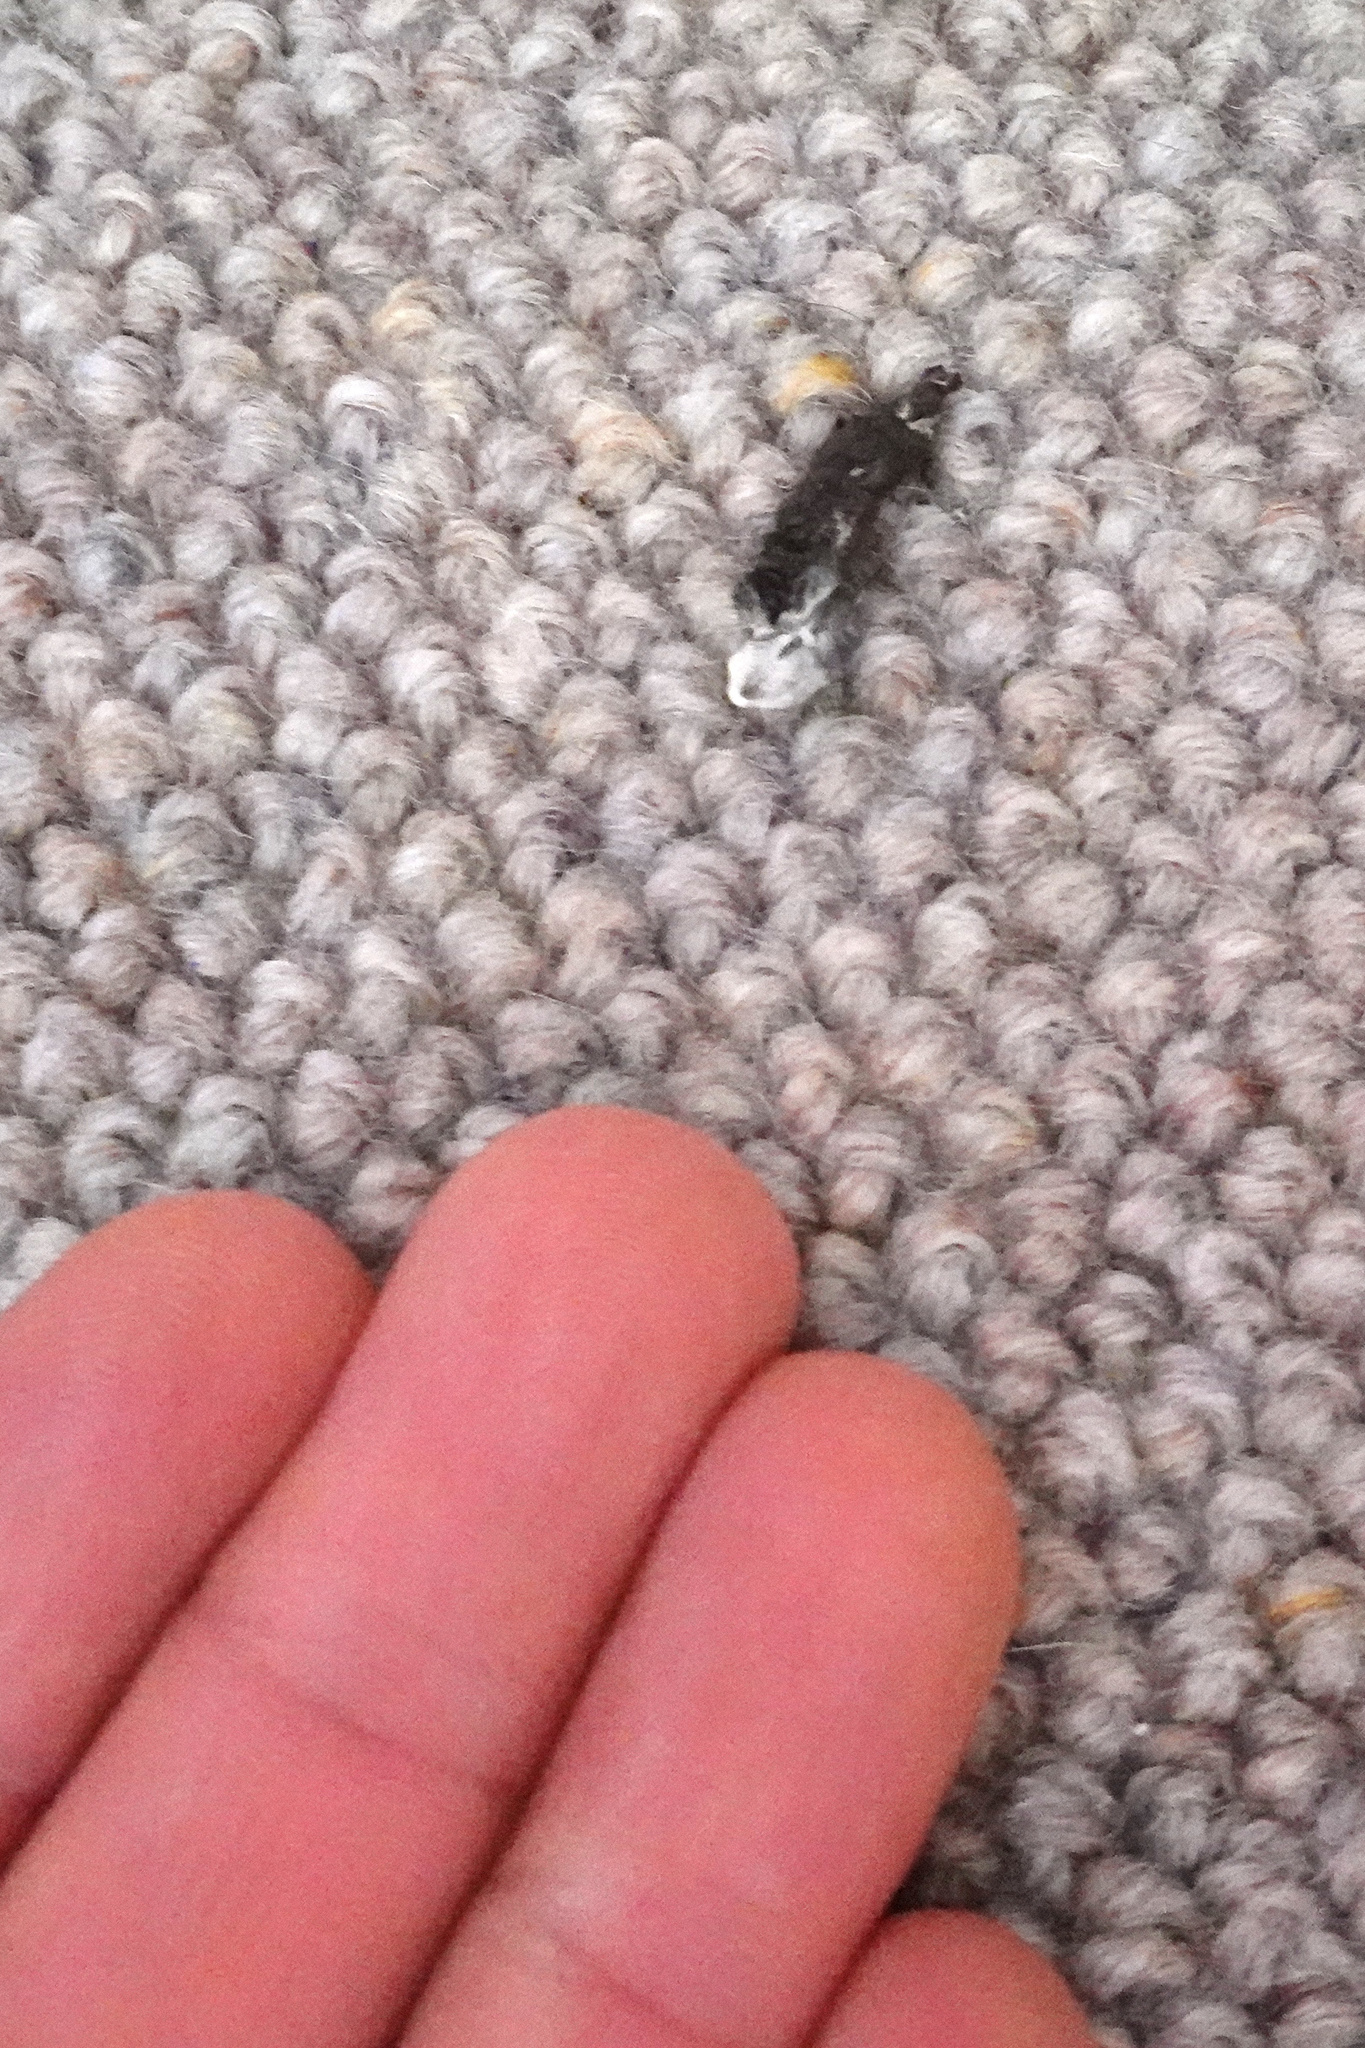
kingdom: Animalia
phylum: Chordata
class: Aves
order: Passeriformes
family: Turdidae
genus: Turdus
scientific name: Turdus merula
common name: Common blackbird
